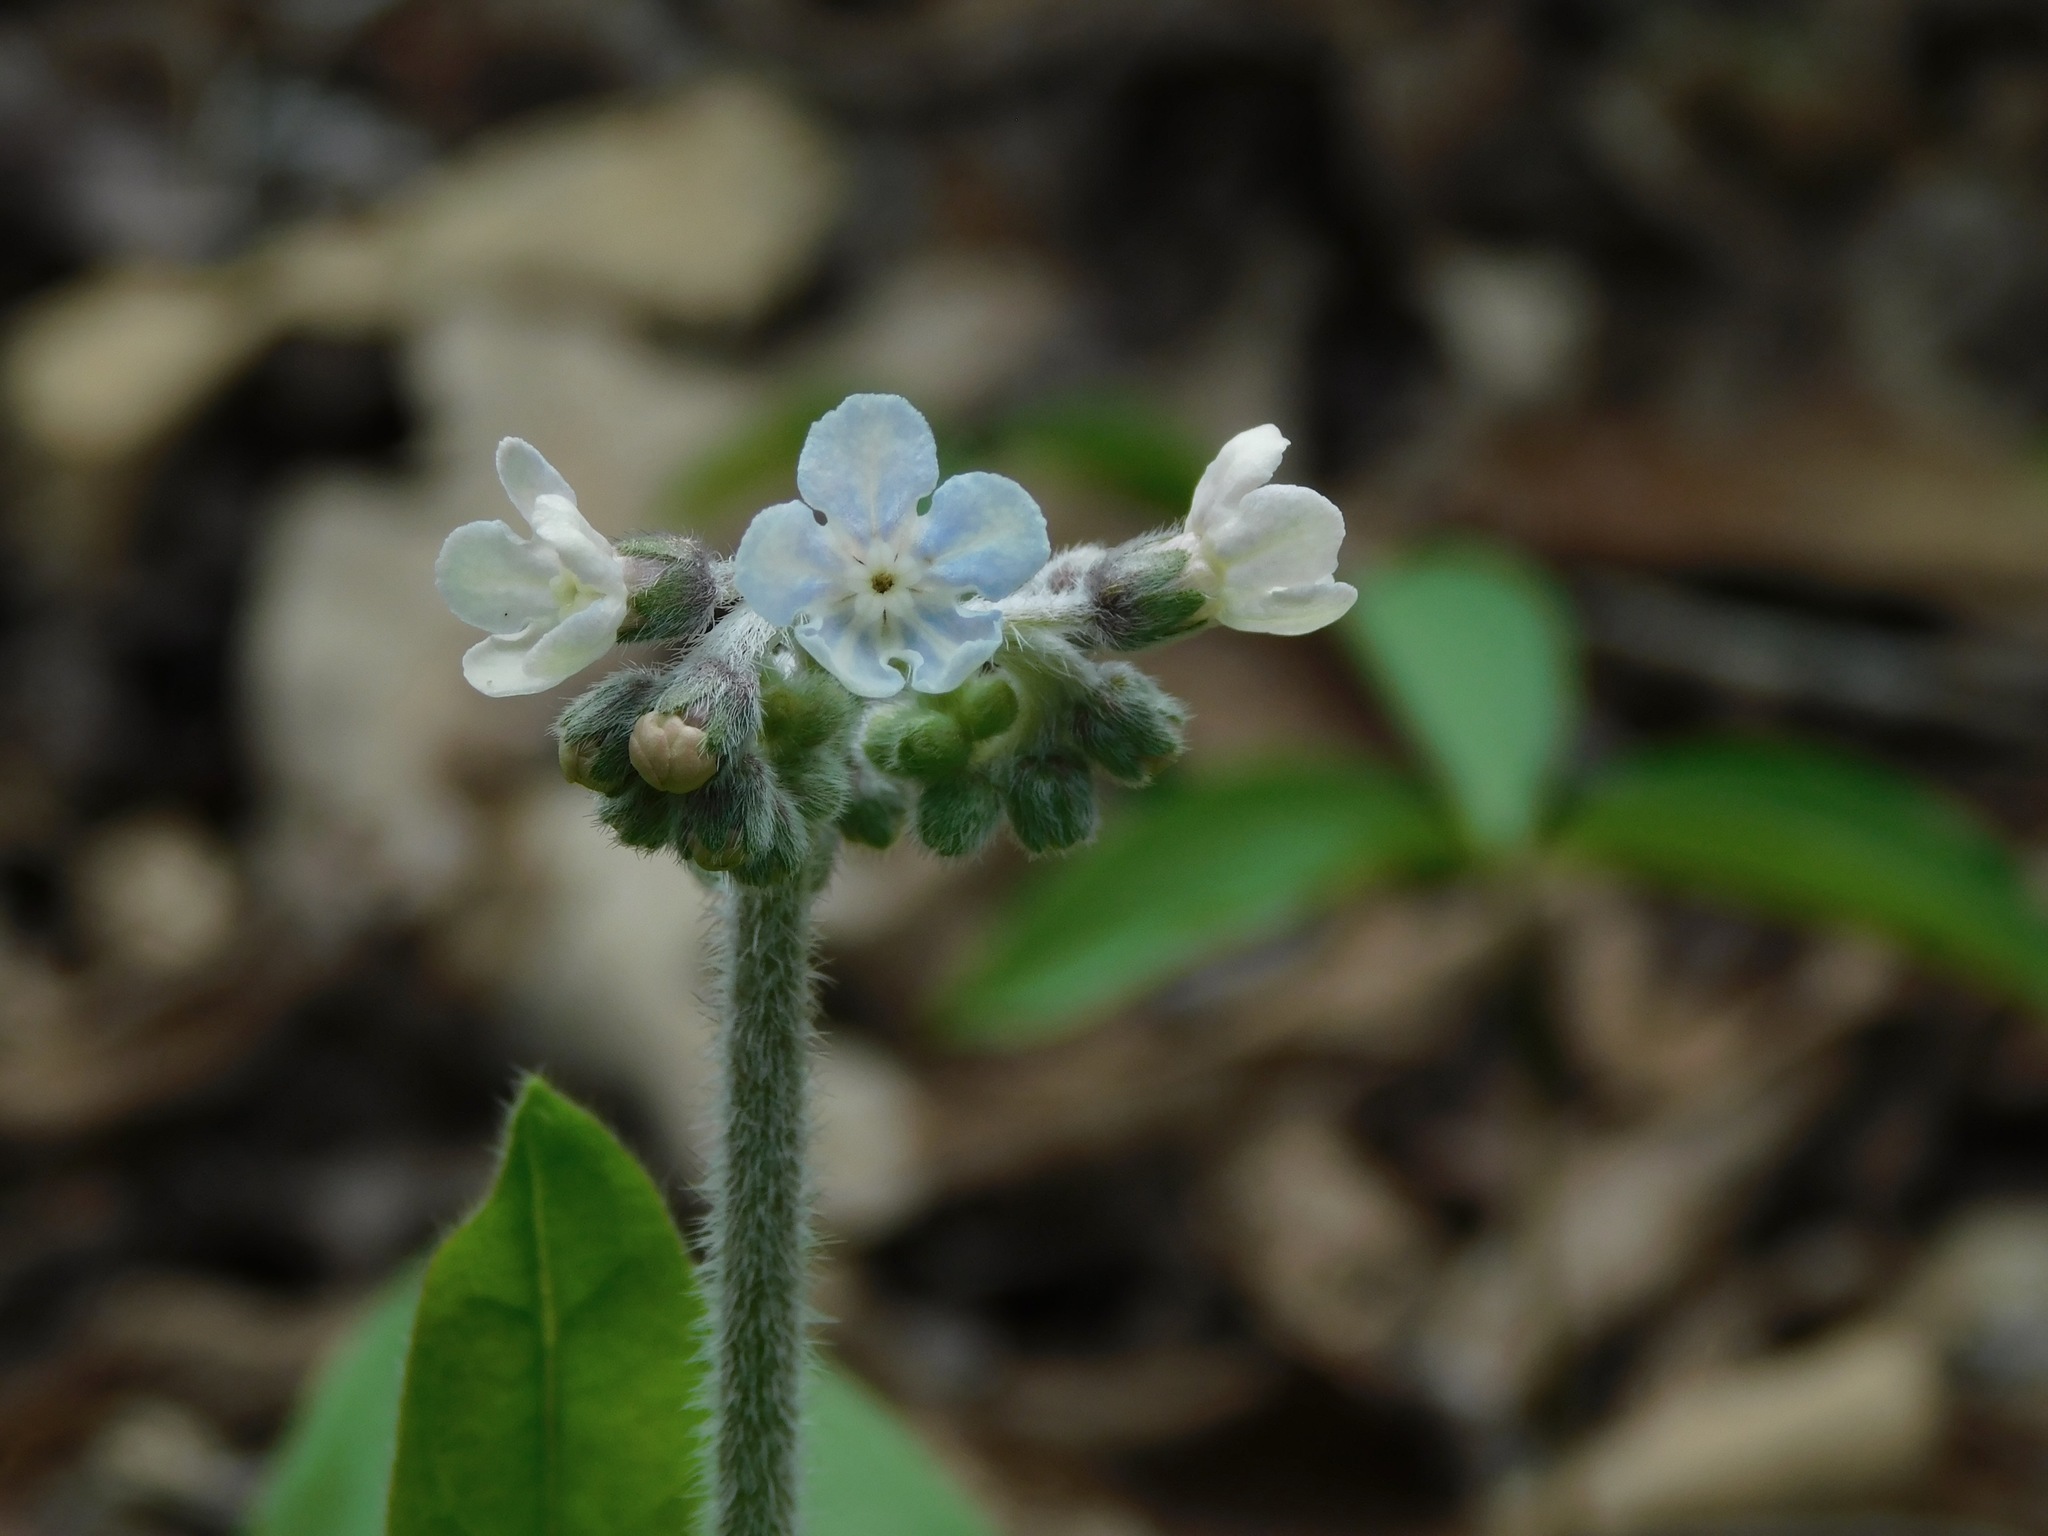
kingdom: Plantae
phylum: Tracheophyta
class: Magnoliopsida
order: Boraginales
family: Boraginaceae
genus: Andersonglossum
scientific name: Andersonglossum virginianum
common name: Wild comfrey
